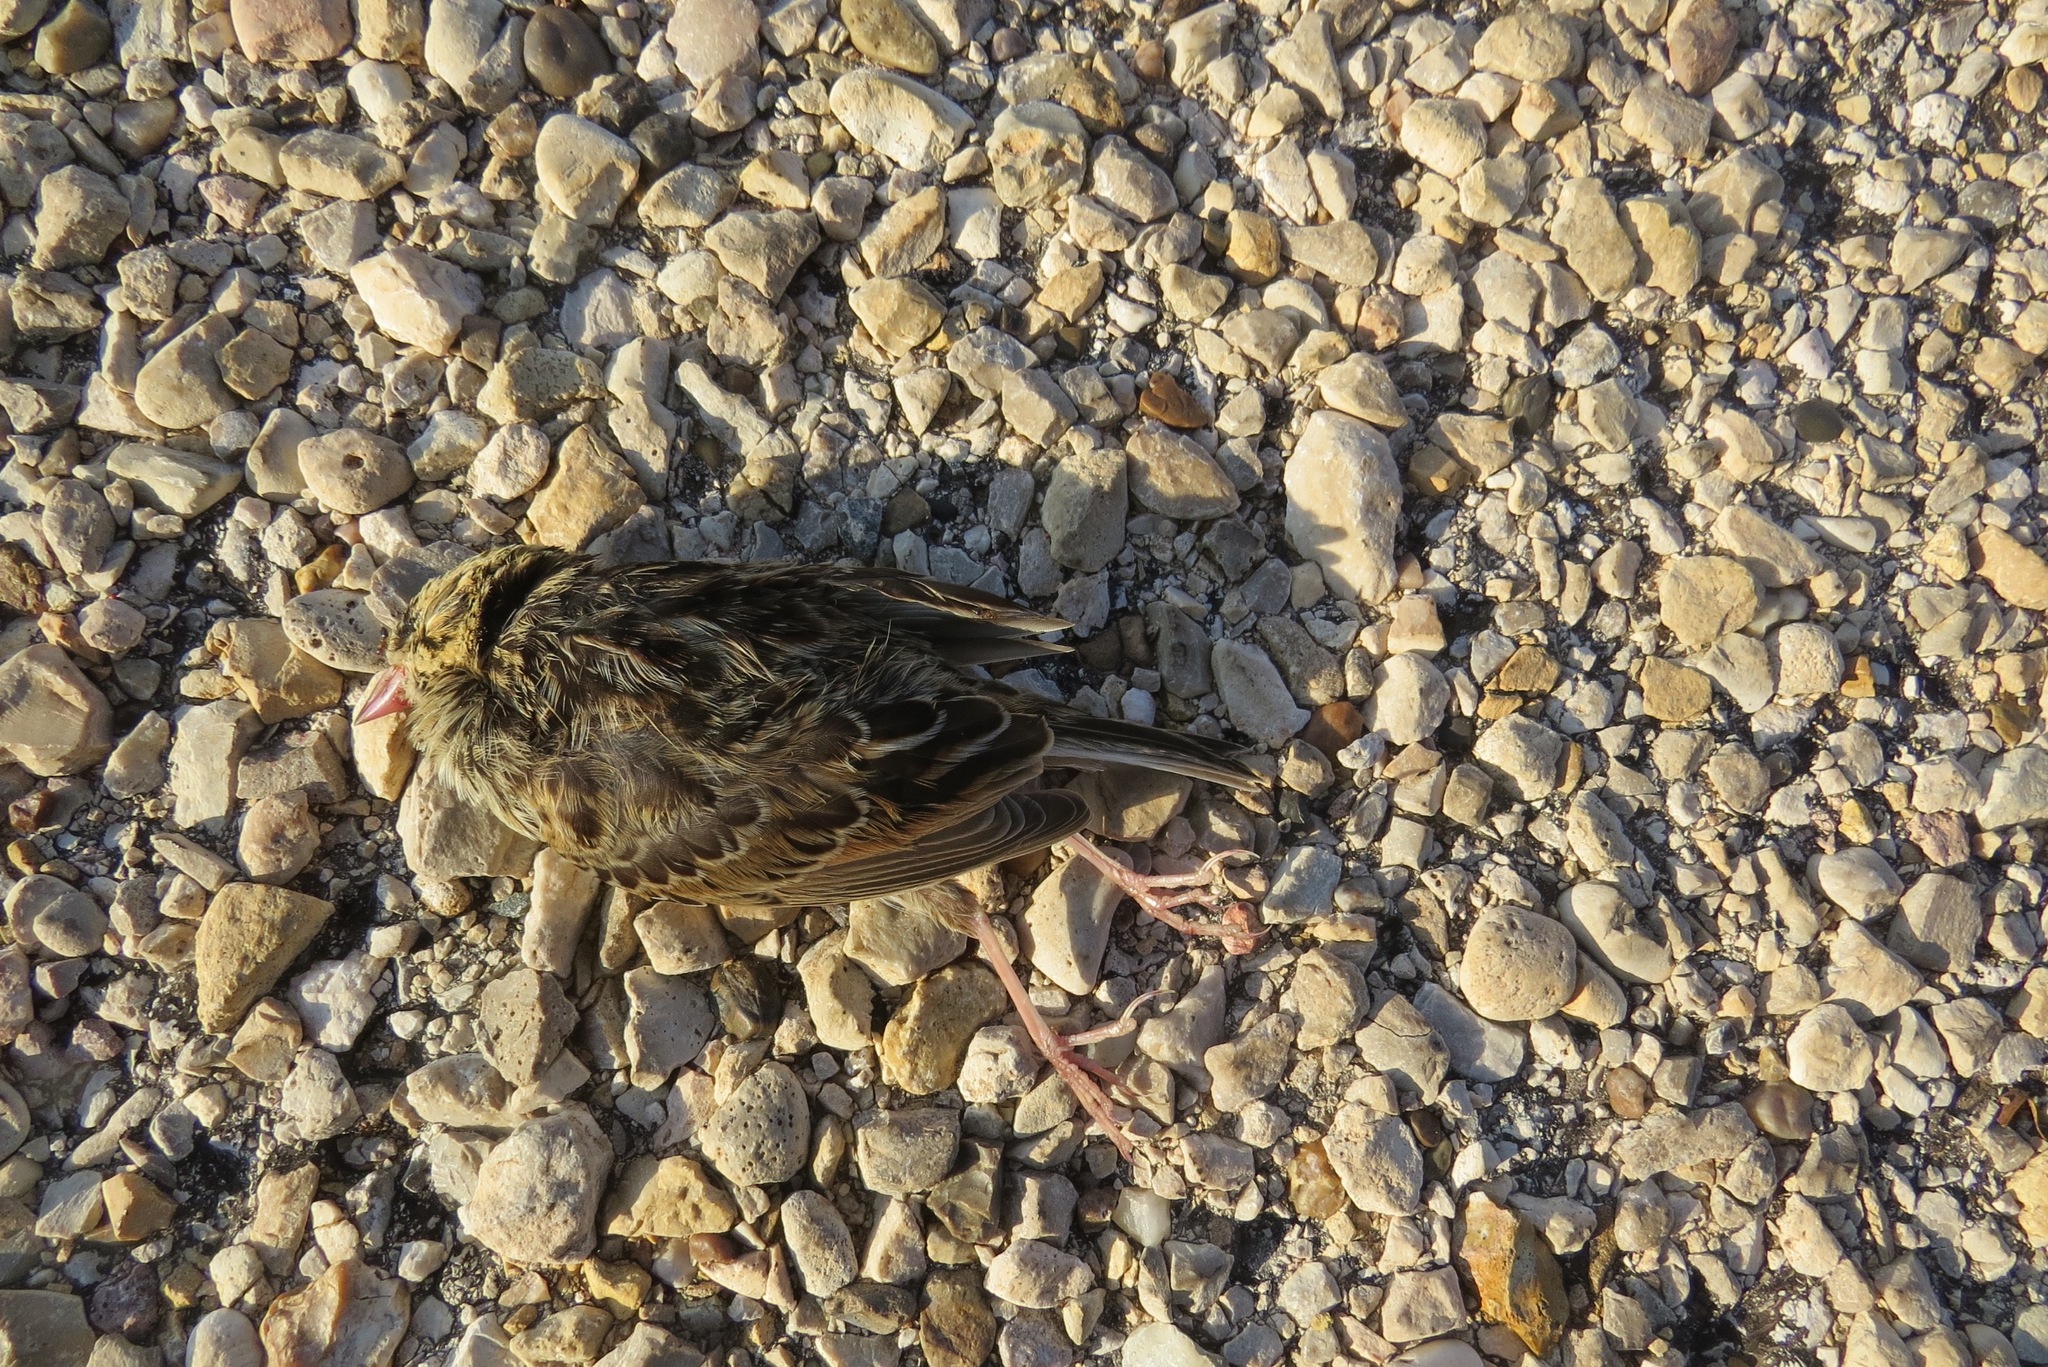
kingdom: Animalia
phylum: Chordata
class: Aves
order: Passeriformes
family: Passerellidae
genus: Centronyx
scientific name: Centronyx bairdii
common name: Baird's sparrow
